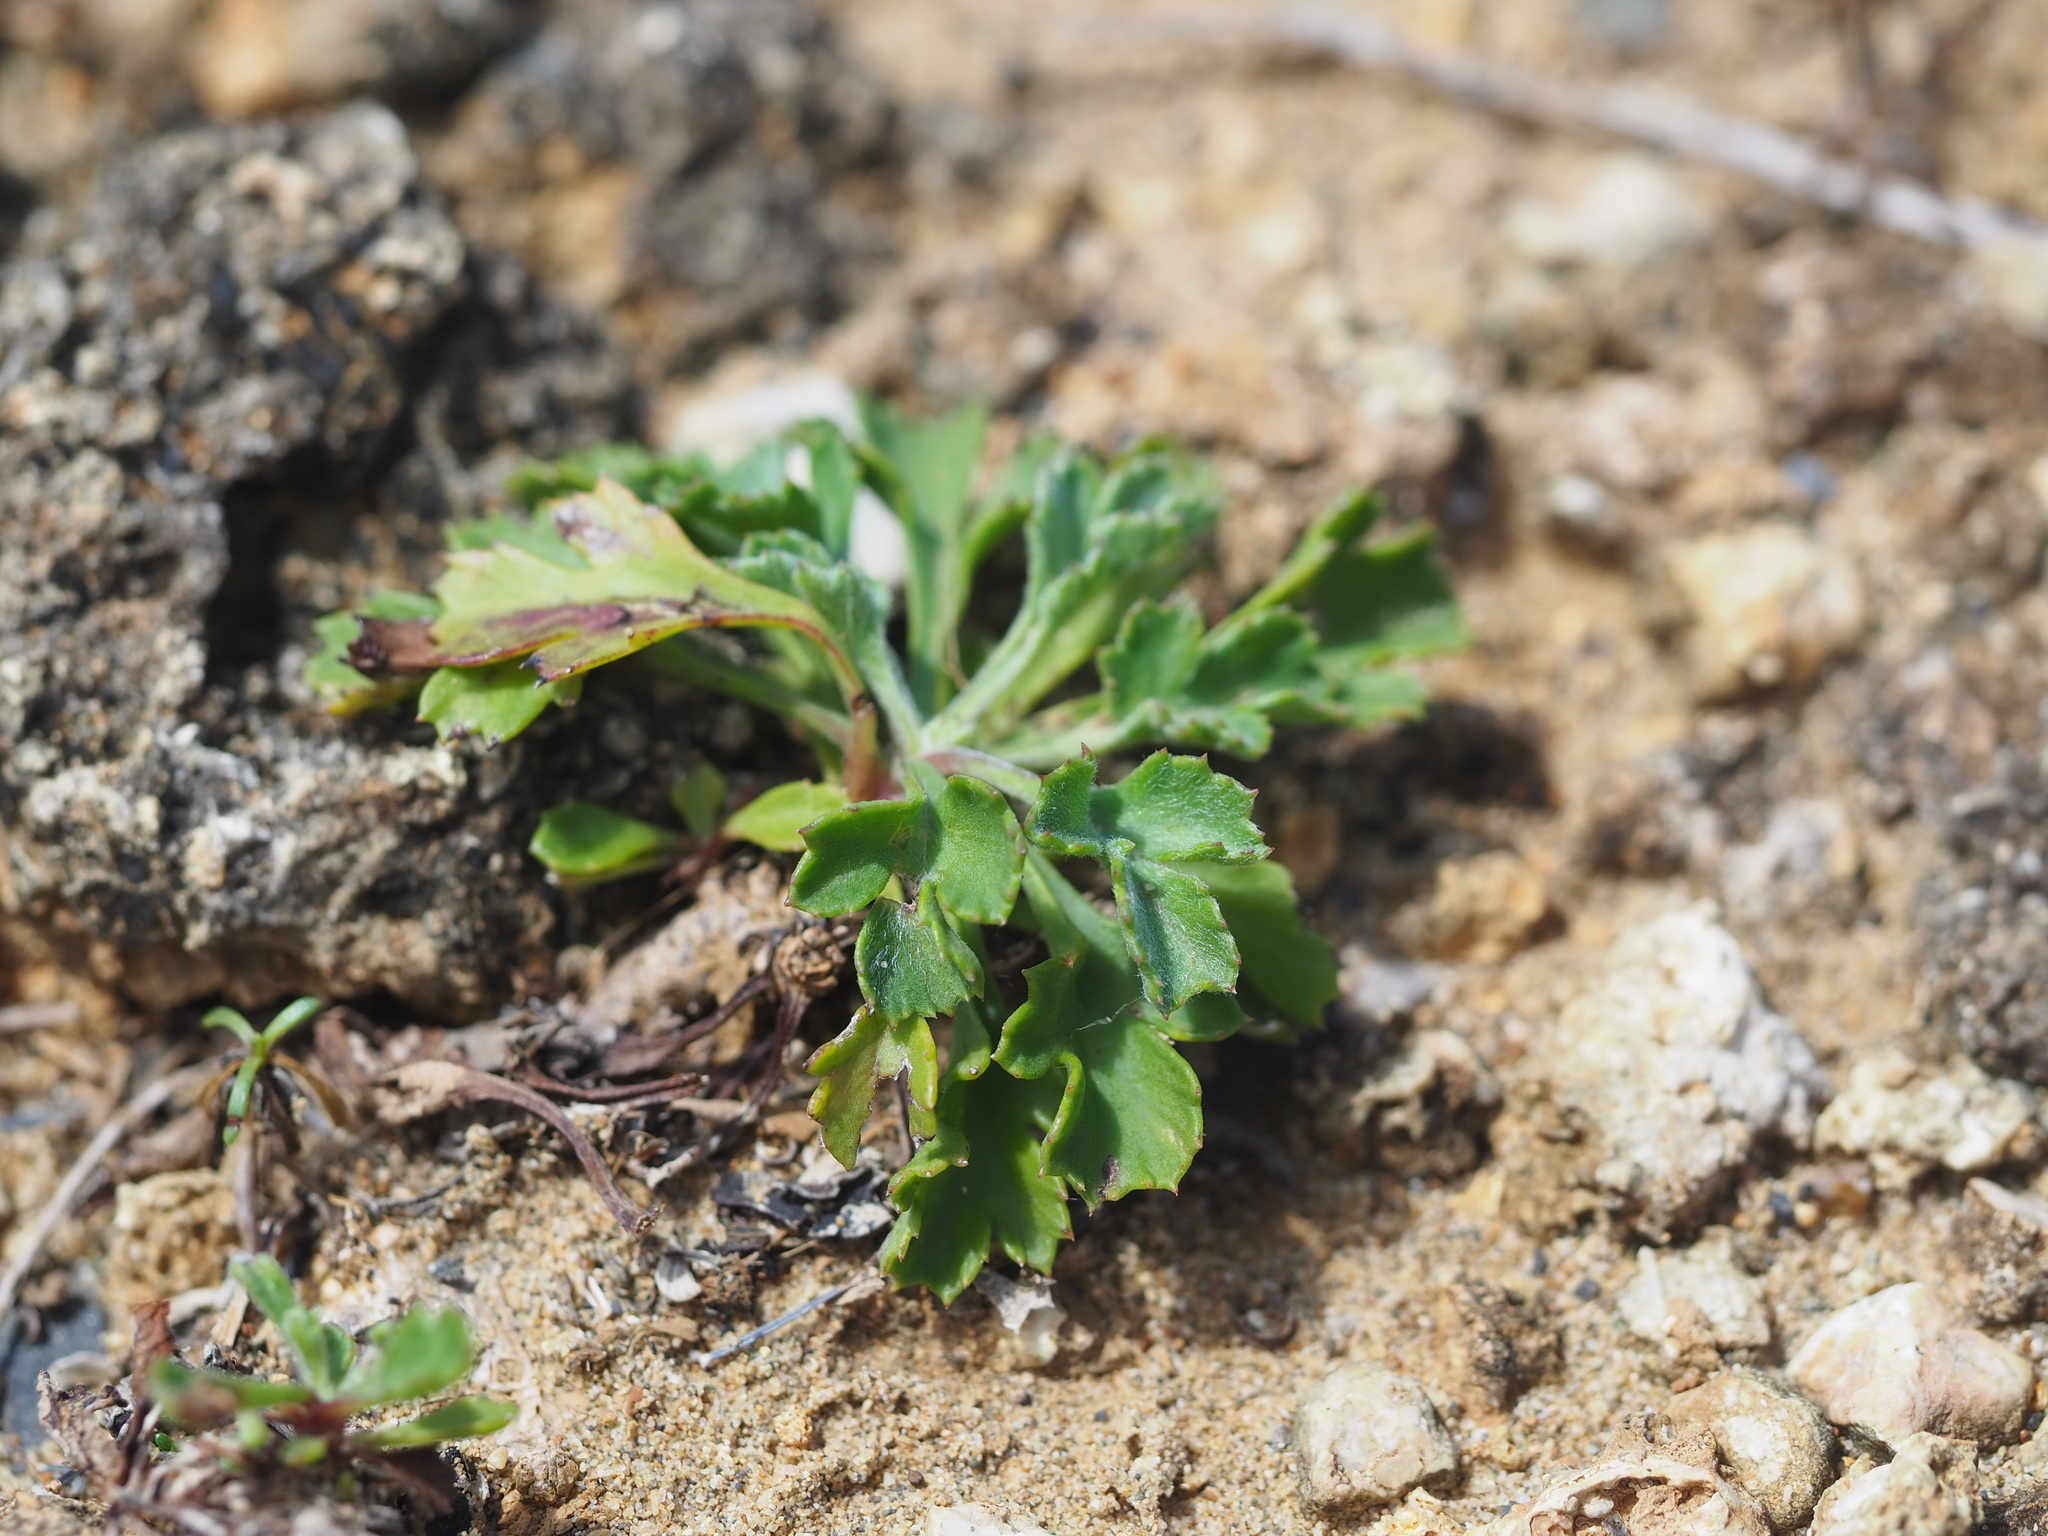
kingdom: Plantae
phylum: Tracheophyta
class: Magnoliopsida
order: Asterales
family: Asteraceae
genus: Artemisia
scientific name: Artemisia capillaris
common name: Yin-chen wormwood
